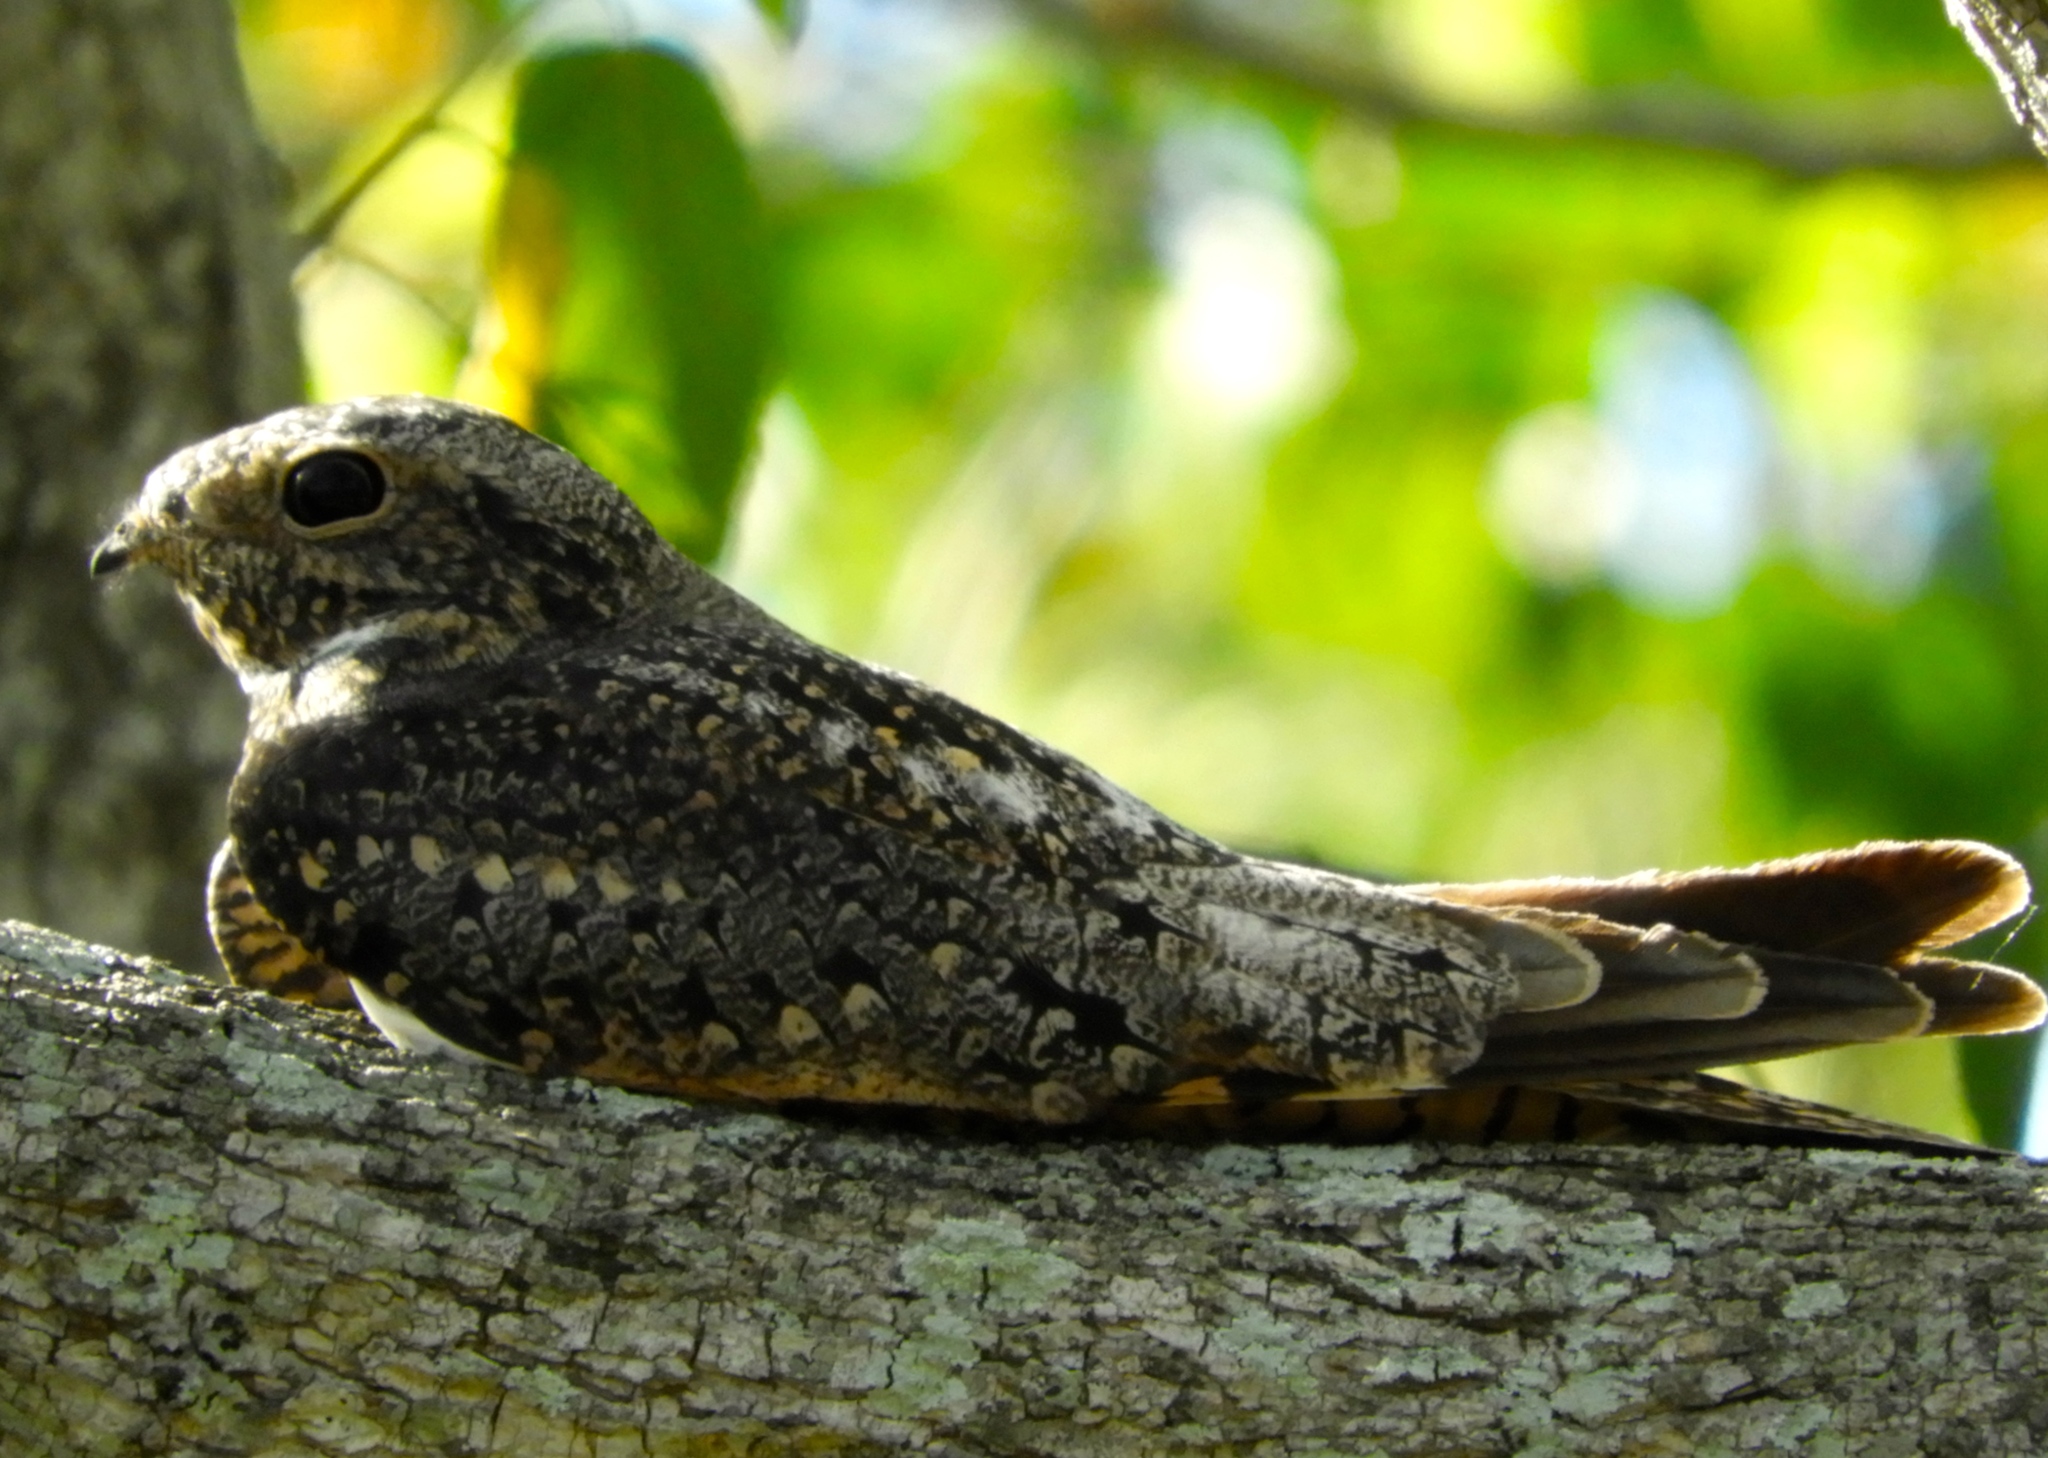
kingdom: Animalia
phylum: Chordata
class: Aves
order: Caprimulgiformes
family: Caprimulgidae
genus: Chordeiles
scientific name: Chordeiles
